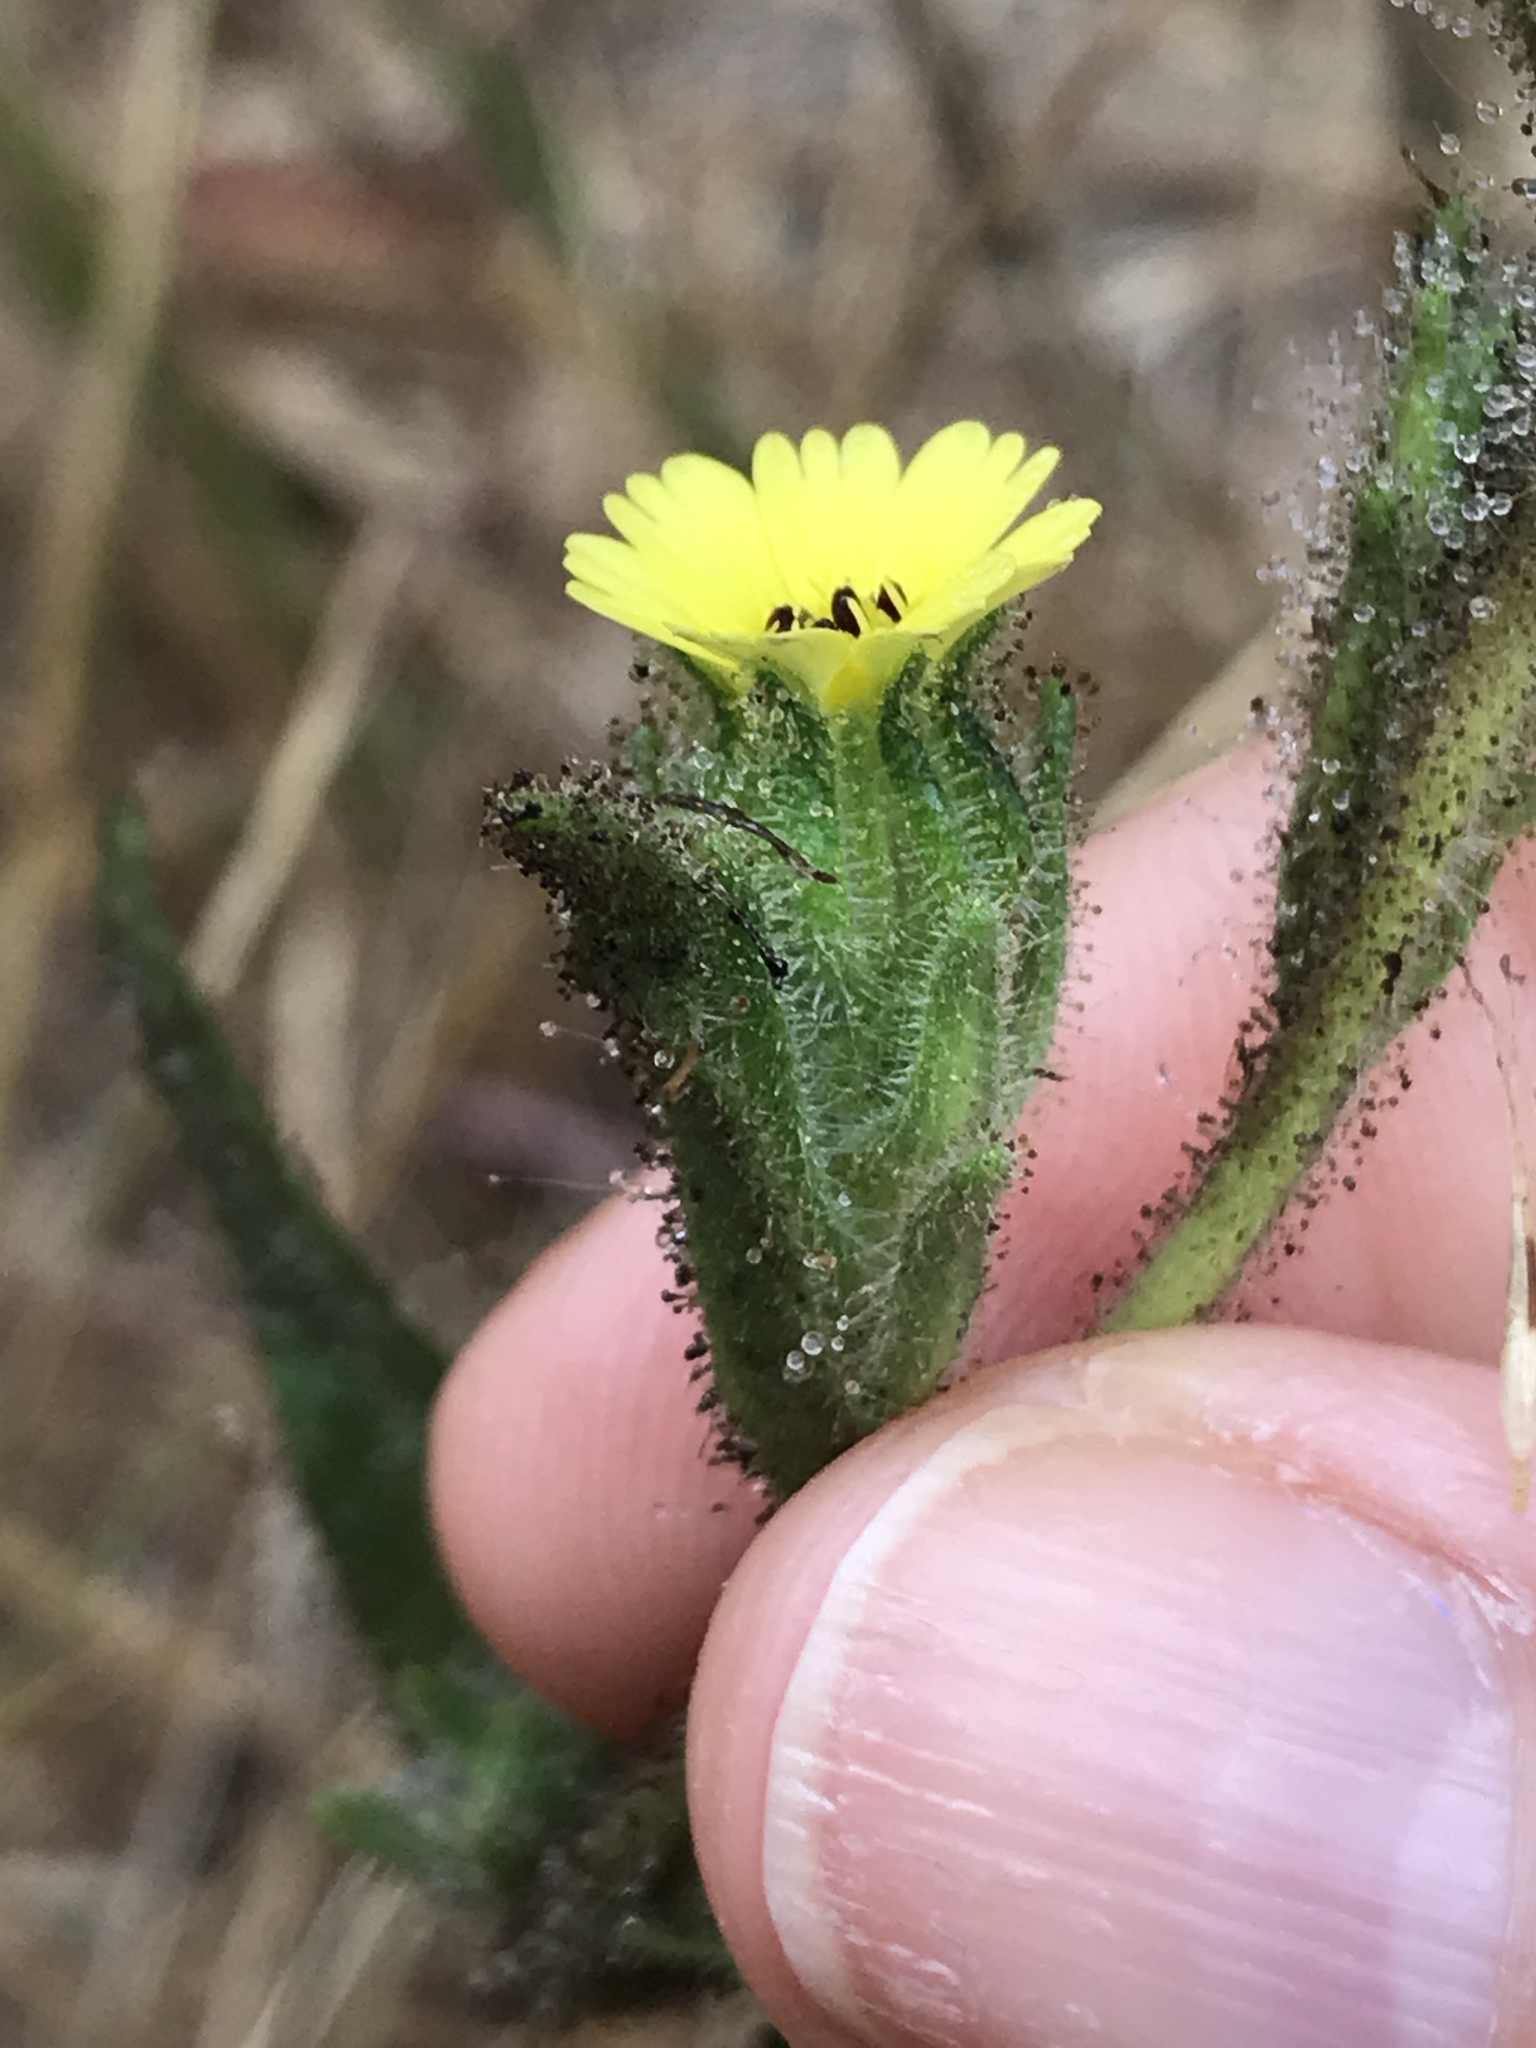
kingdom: Plantae
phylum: Tracheophyta
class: Magnoliopsida
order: Asterales
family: Asteraceae
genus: Madia
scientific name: Madia sativa
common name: Coast tarweed
